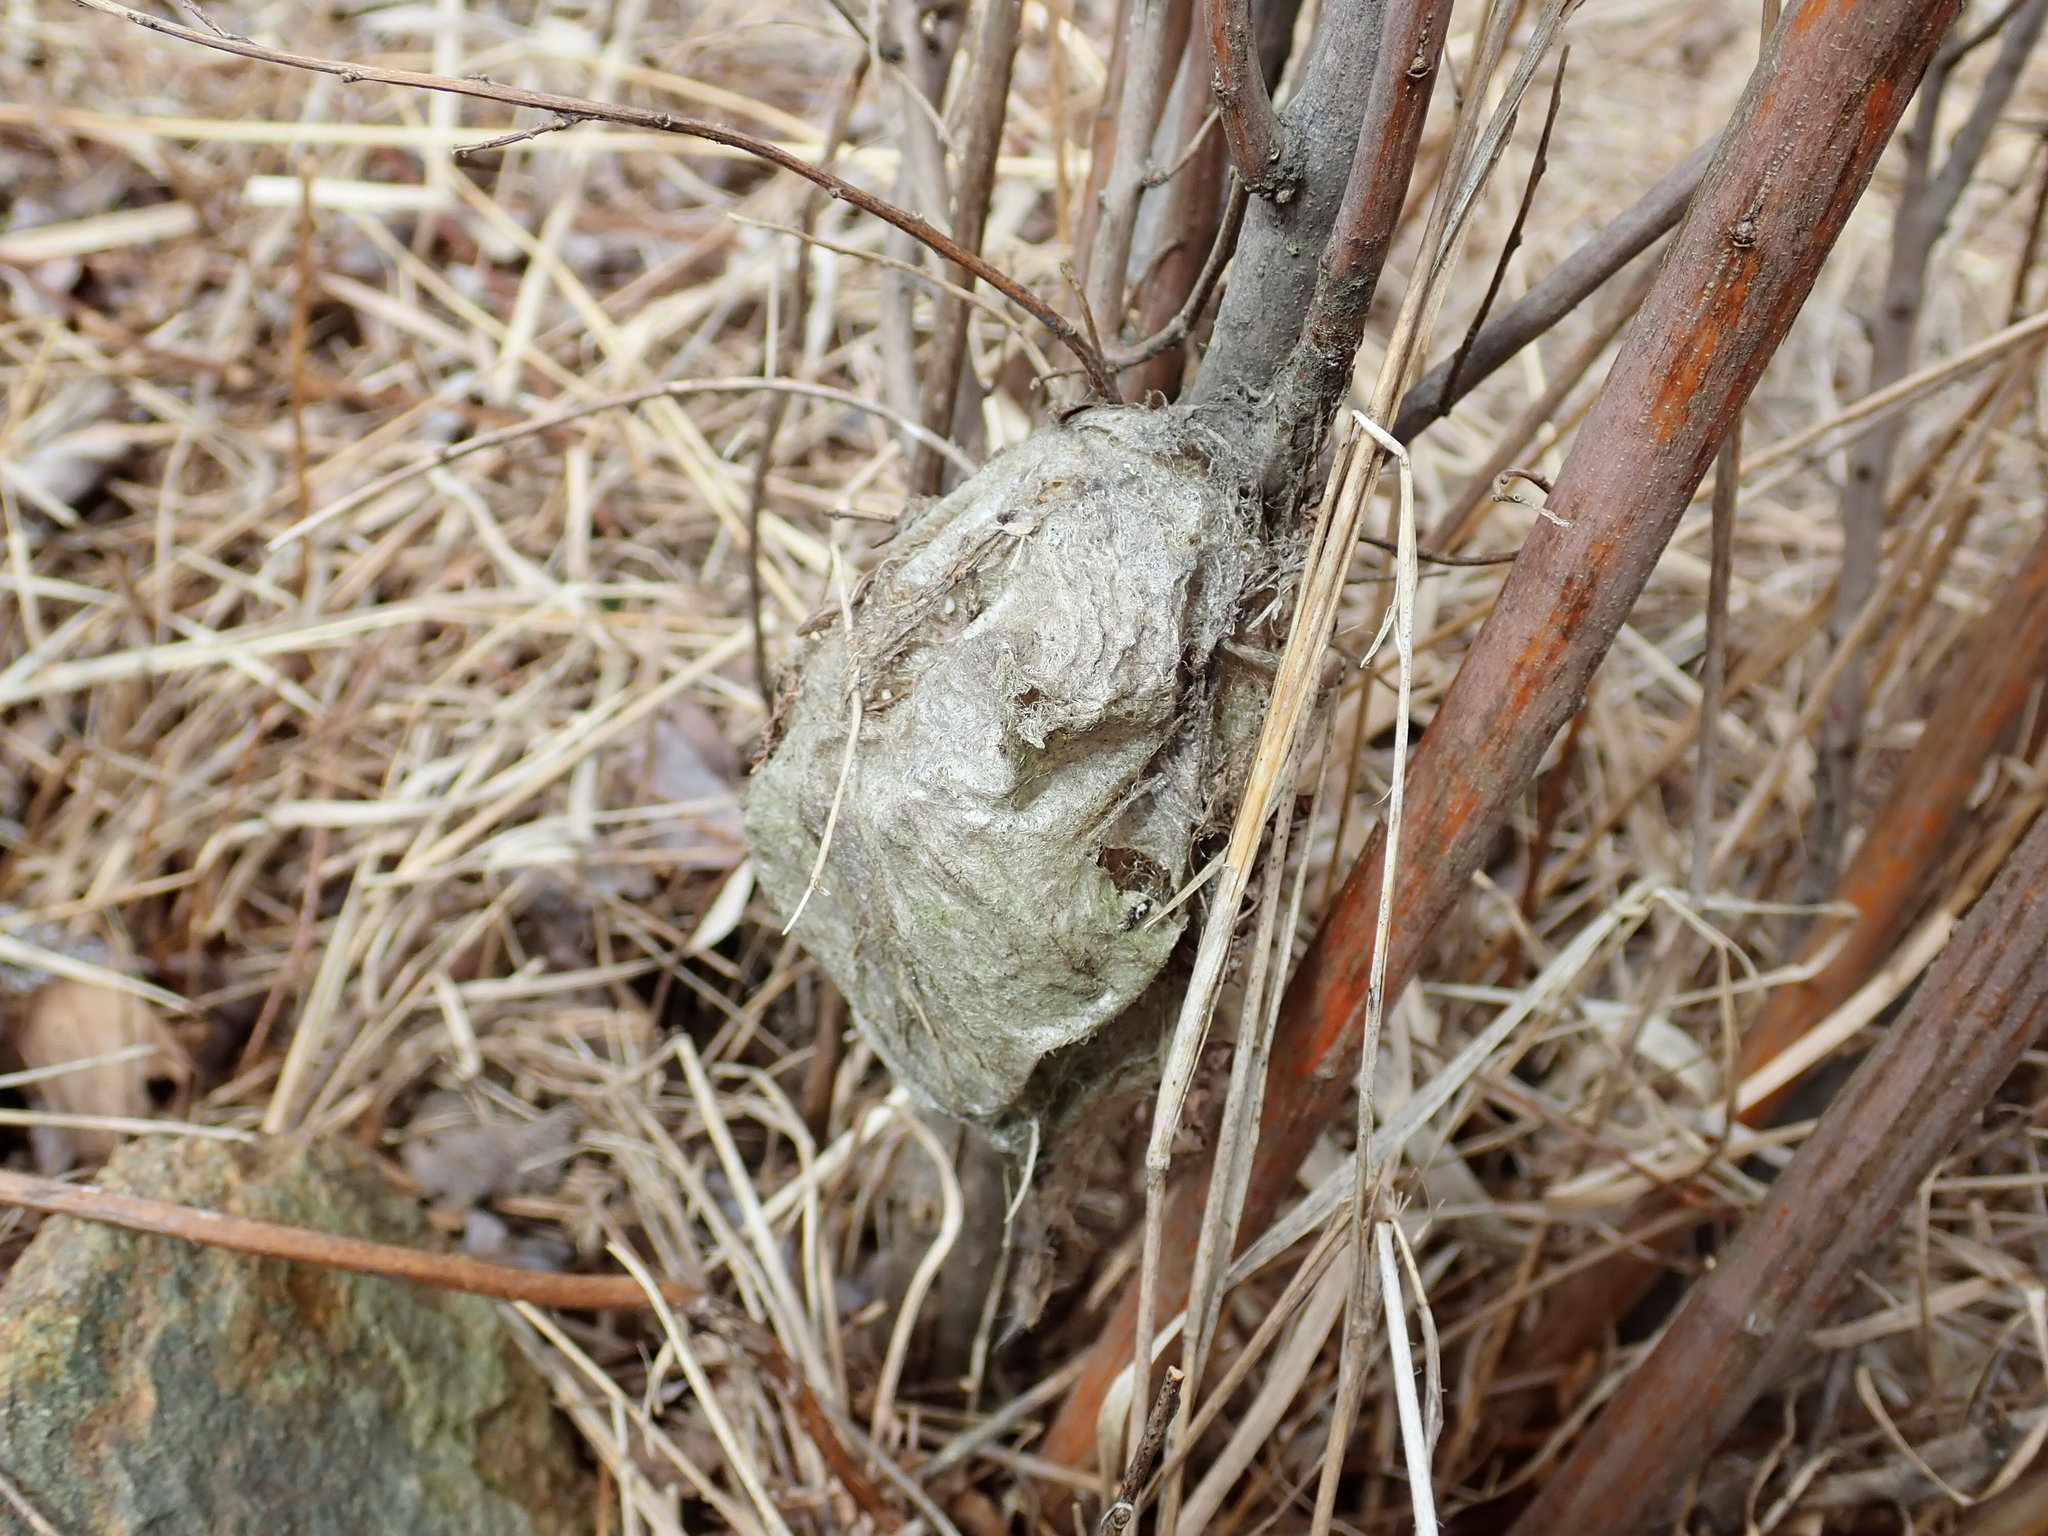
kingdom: Animalia
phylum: Arthropoda
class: Insecta
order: Lepidoptera
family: Saturniidae
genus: Hyalophora
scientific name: Hyalophora cecropia
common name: Cecropia silkmoth
